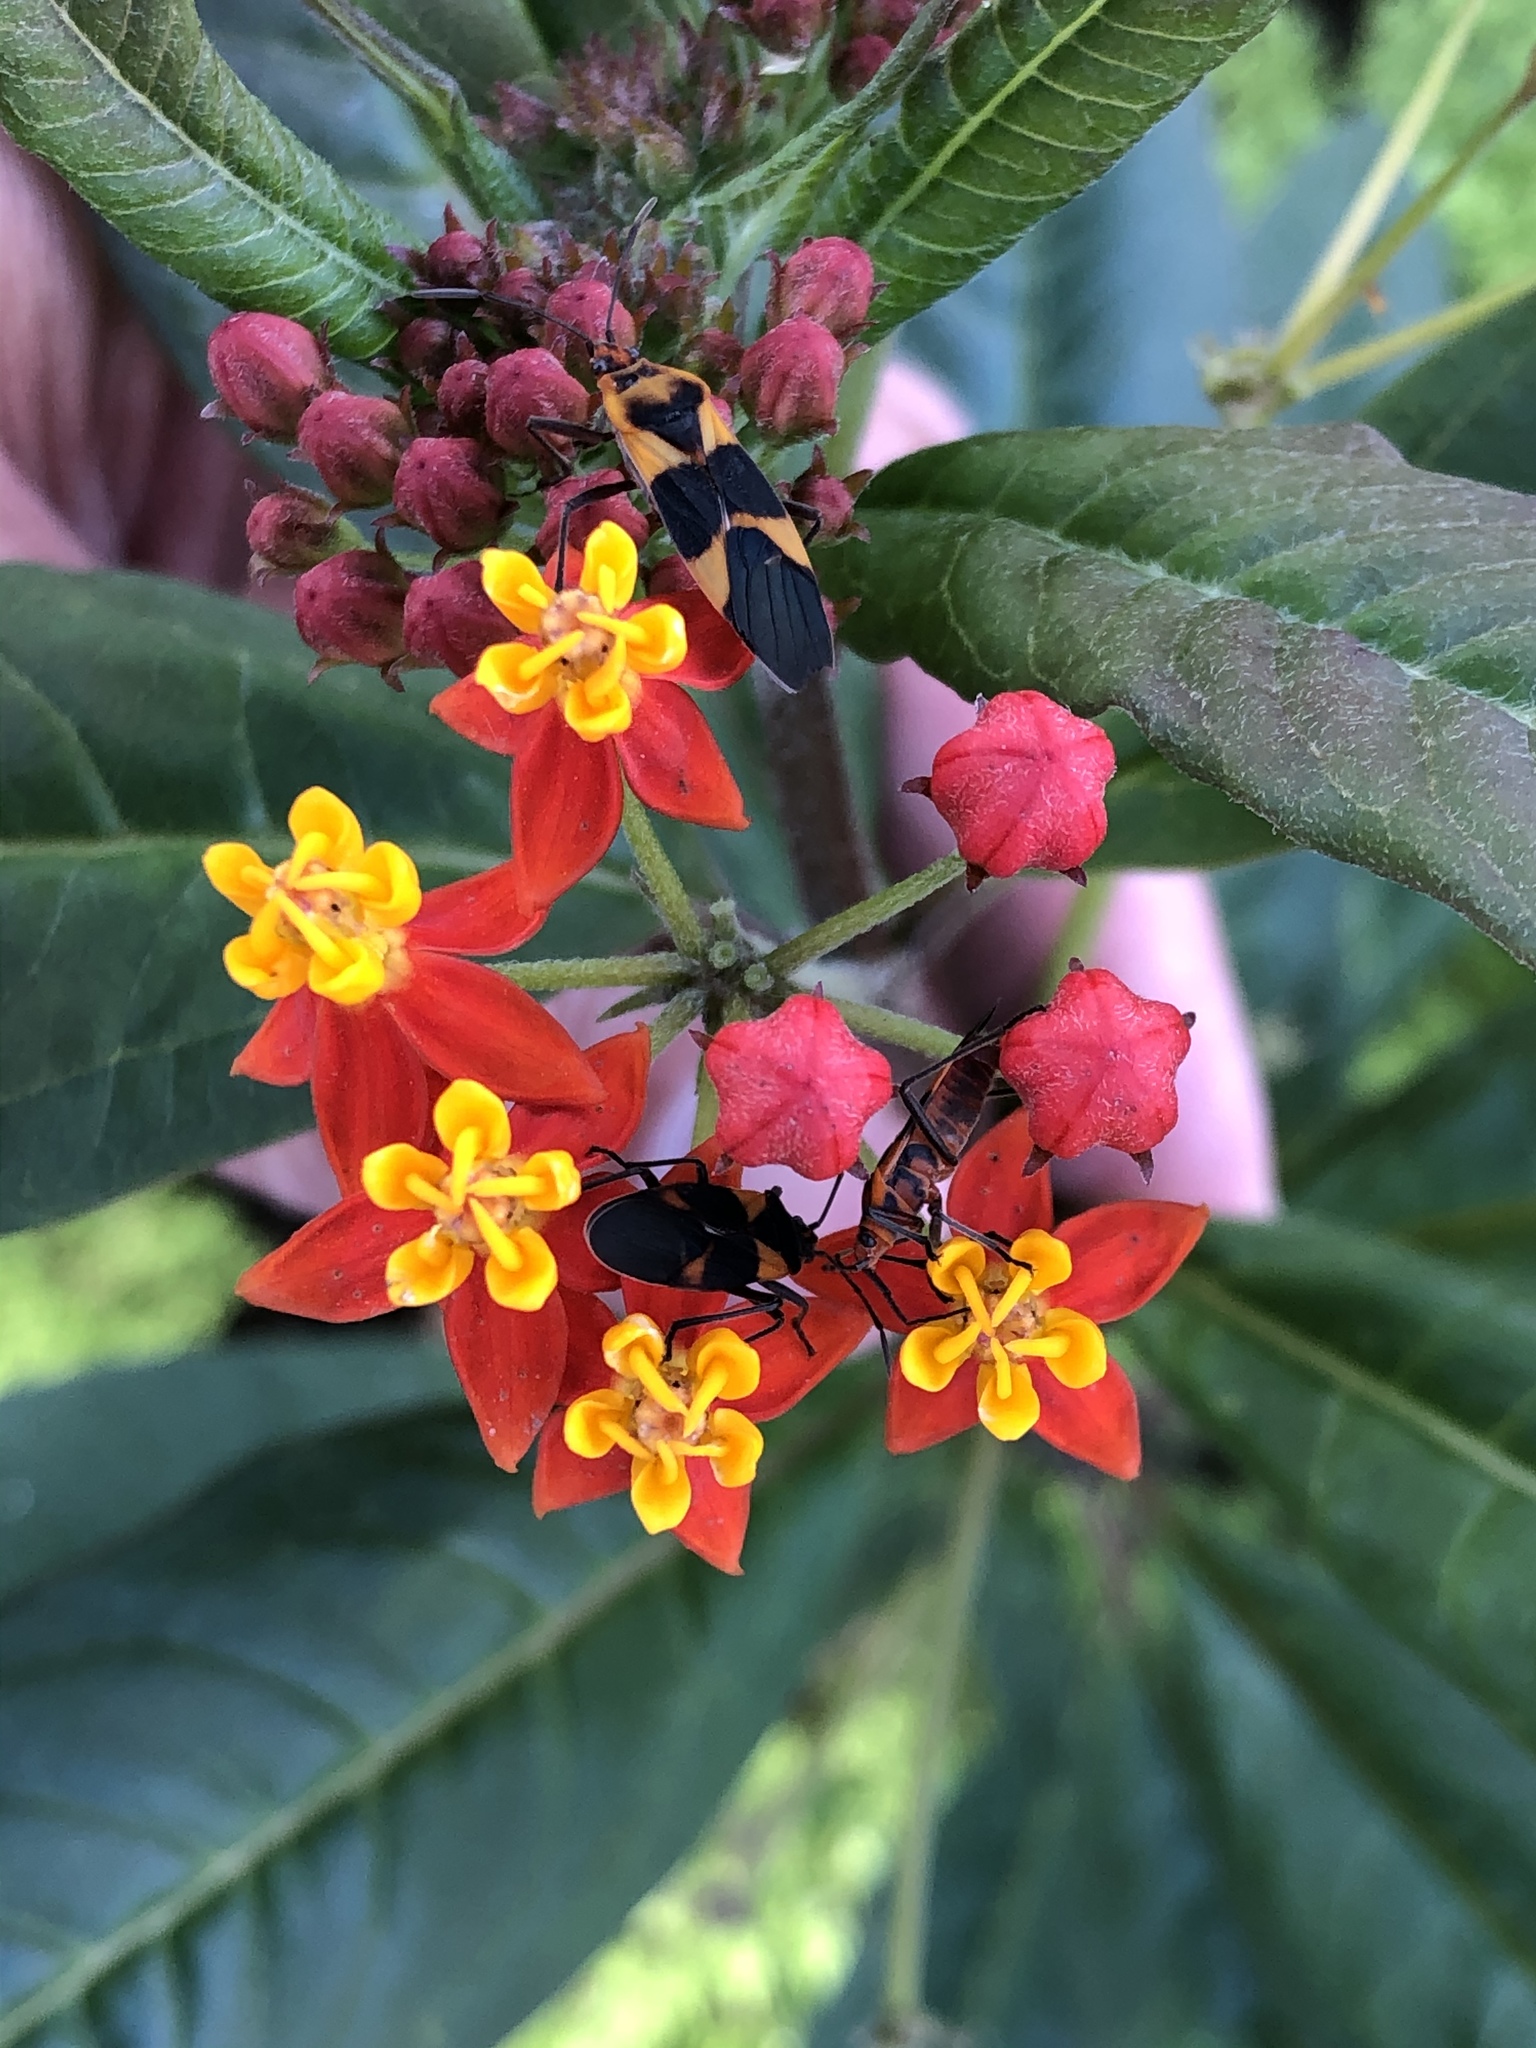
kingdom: Animalia
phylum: Arthropoda
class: Insecta
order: Hemiptera
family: Lygaeidae
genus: Oncopeltus
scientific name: Oncopeltus zonatus
